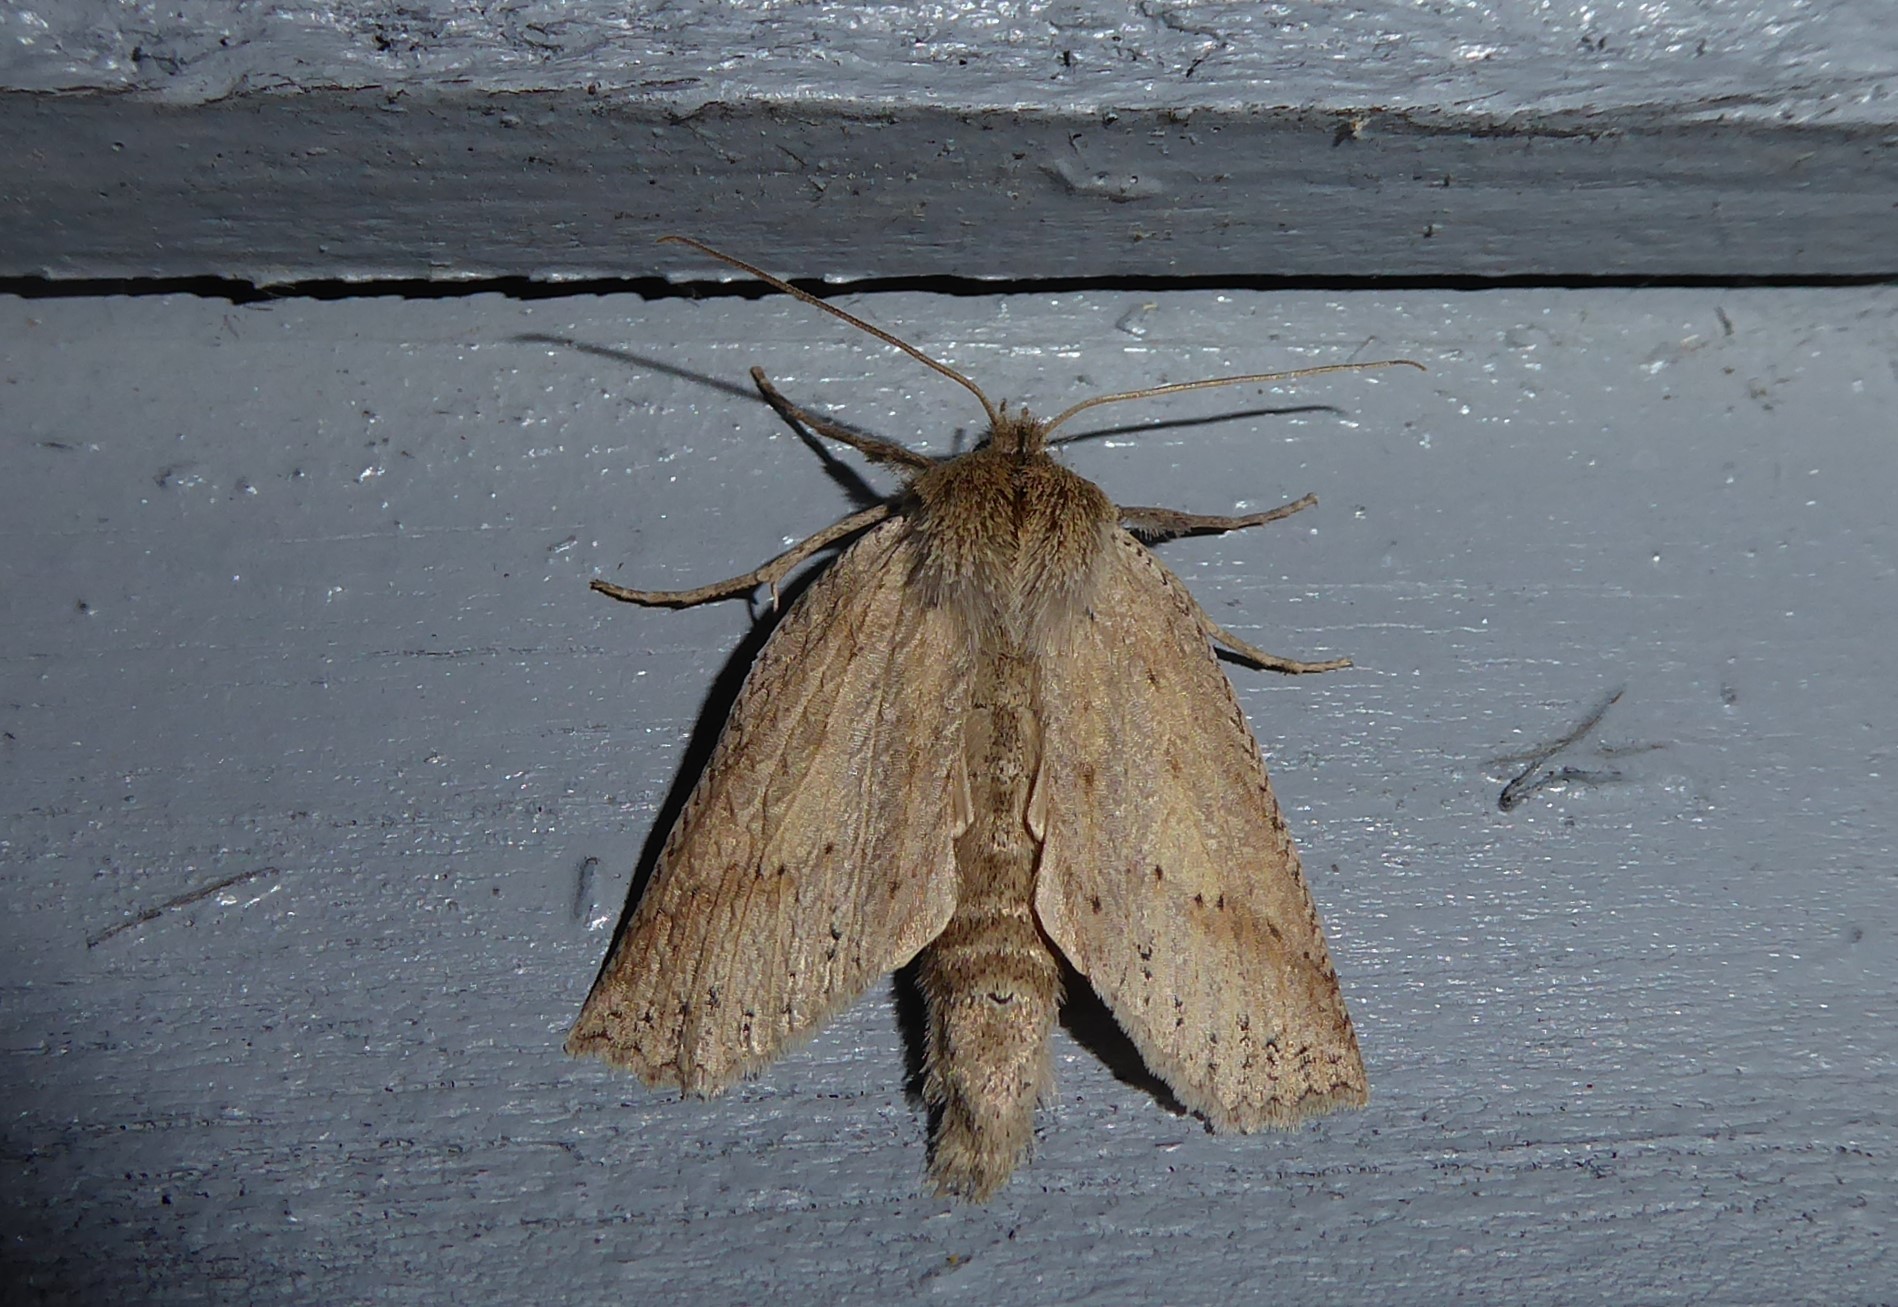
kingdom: Animalia
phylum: Arthropoda
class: Insecta
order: Lepidoptera
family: Geometridae
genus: Declana
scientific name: Declana leptomera
